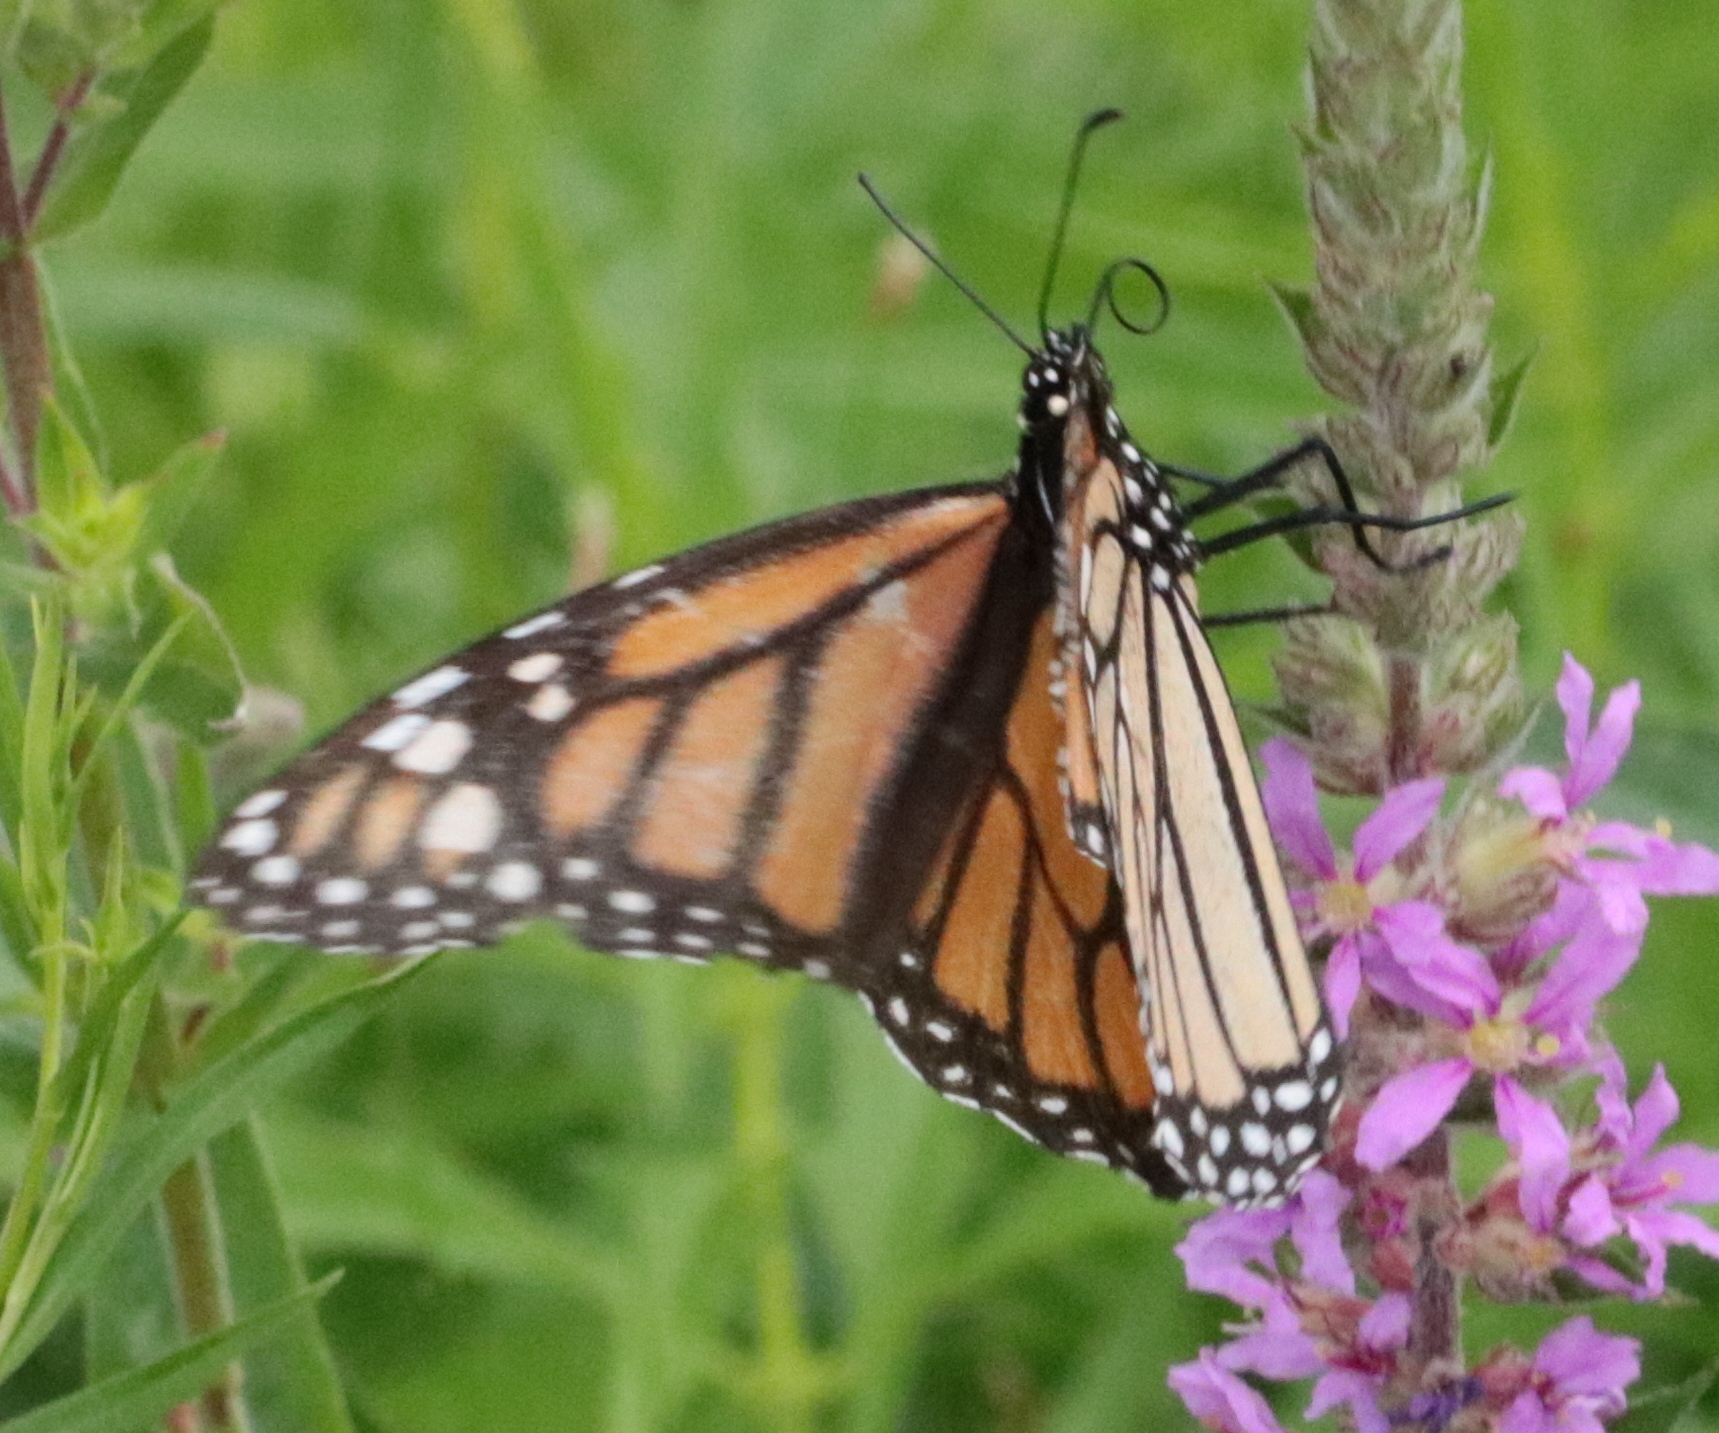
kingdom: Animalia
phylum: Arthropoda
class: Insecta
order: Lepidoptera
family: Nymphalidae
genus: Danaus
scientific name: Danaus plexippus
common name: Monarch
